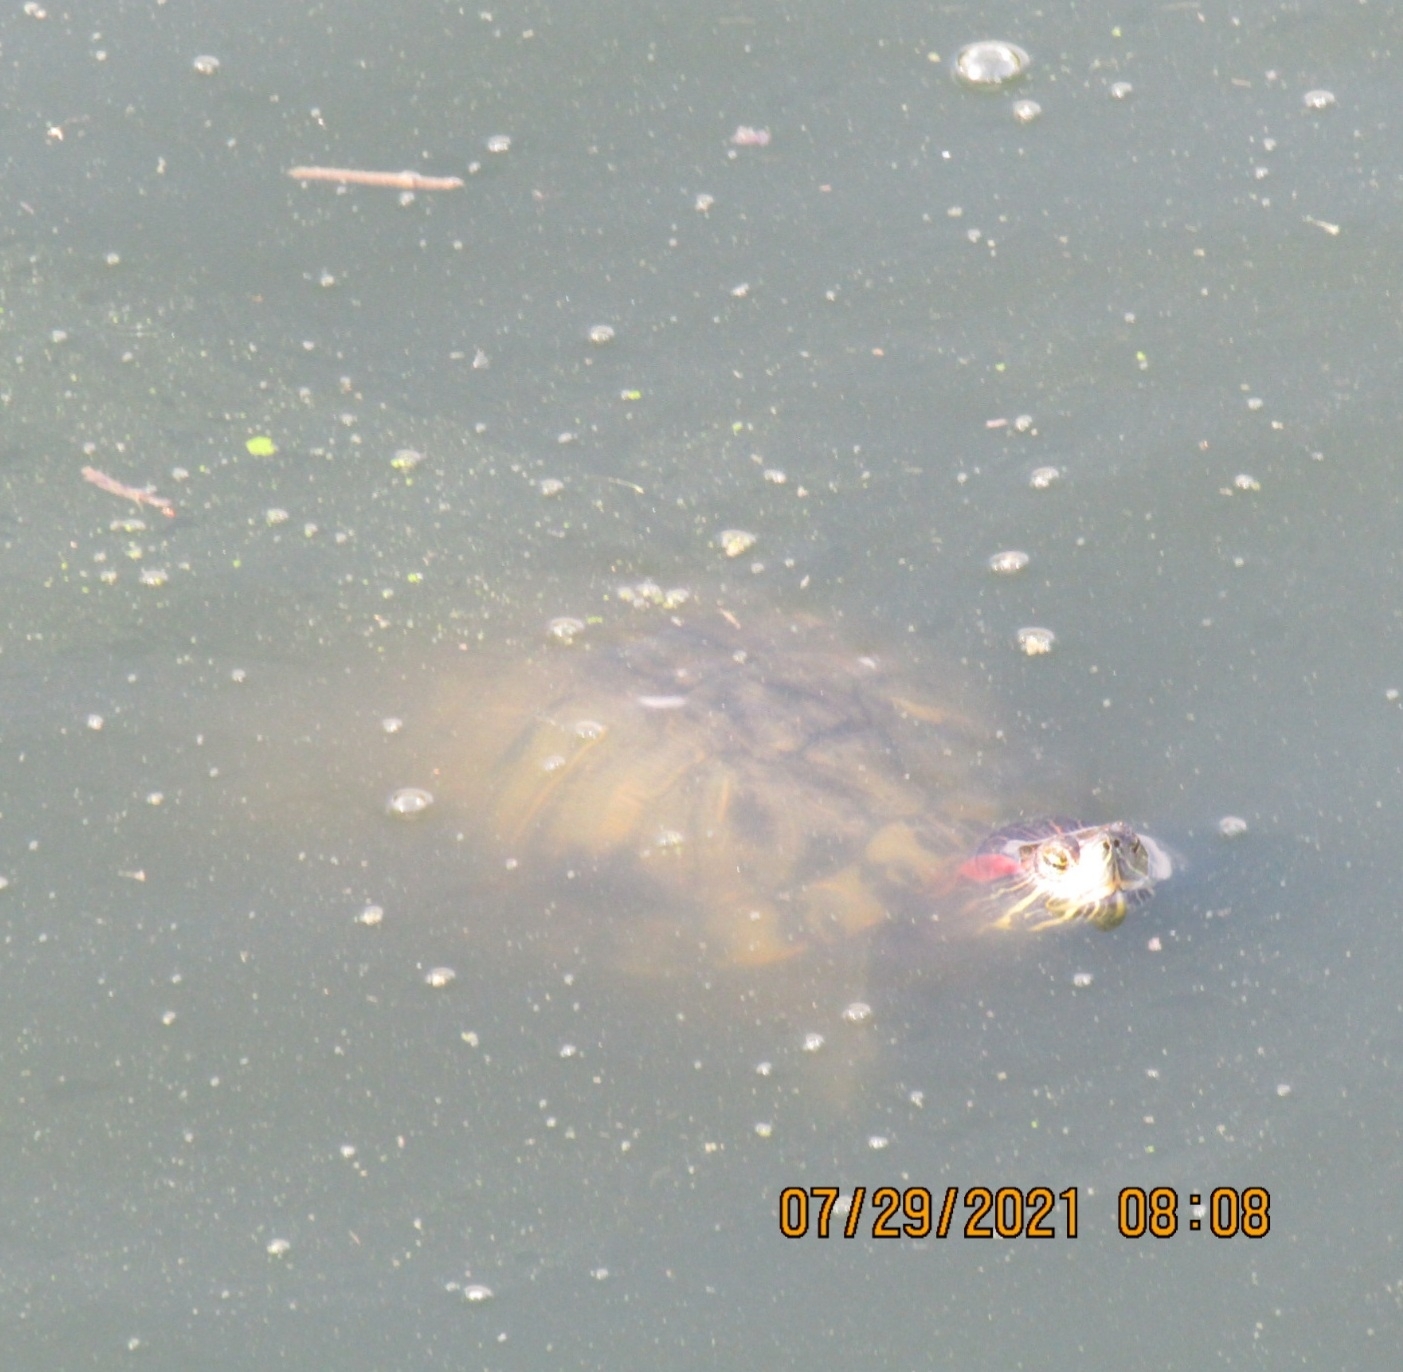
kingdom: Animalia
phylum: Chordata
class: Testudines
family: Emydidae
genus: Trachemys
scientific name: Trachemys scripta
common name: Slider
